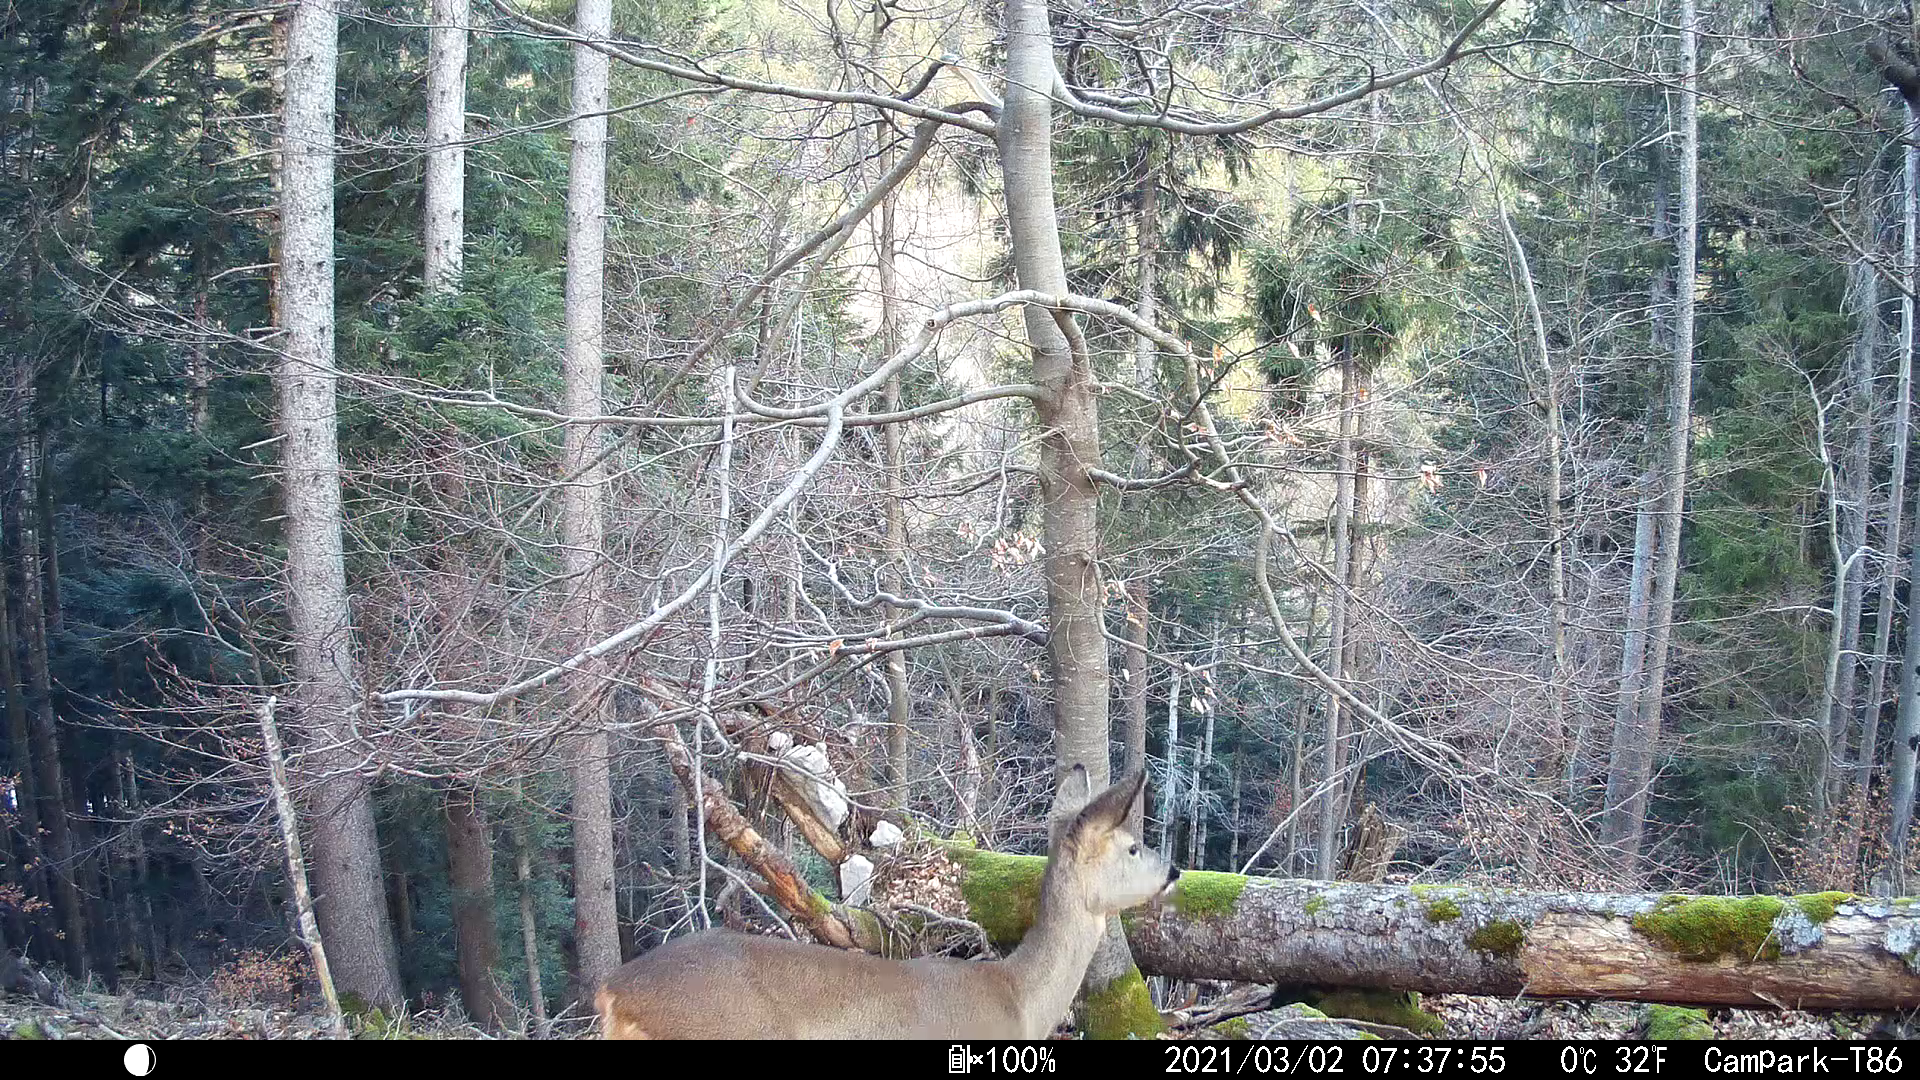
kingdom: Animalia
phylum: Chordata
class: Mammalia
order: Artiodactyla
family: Cervidae
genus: Capreolus
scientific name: Capreolus capreolus
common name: Western roe deer
